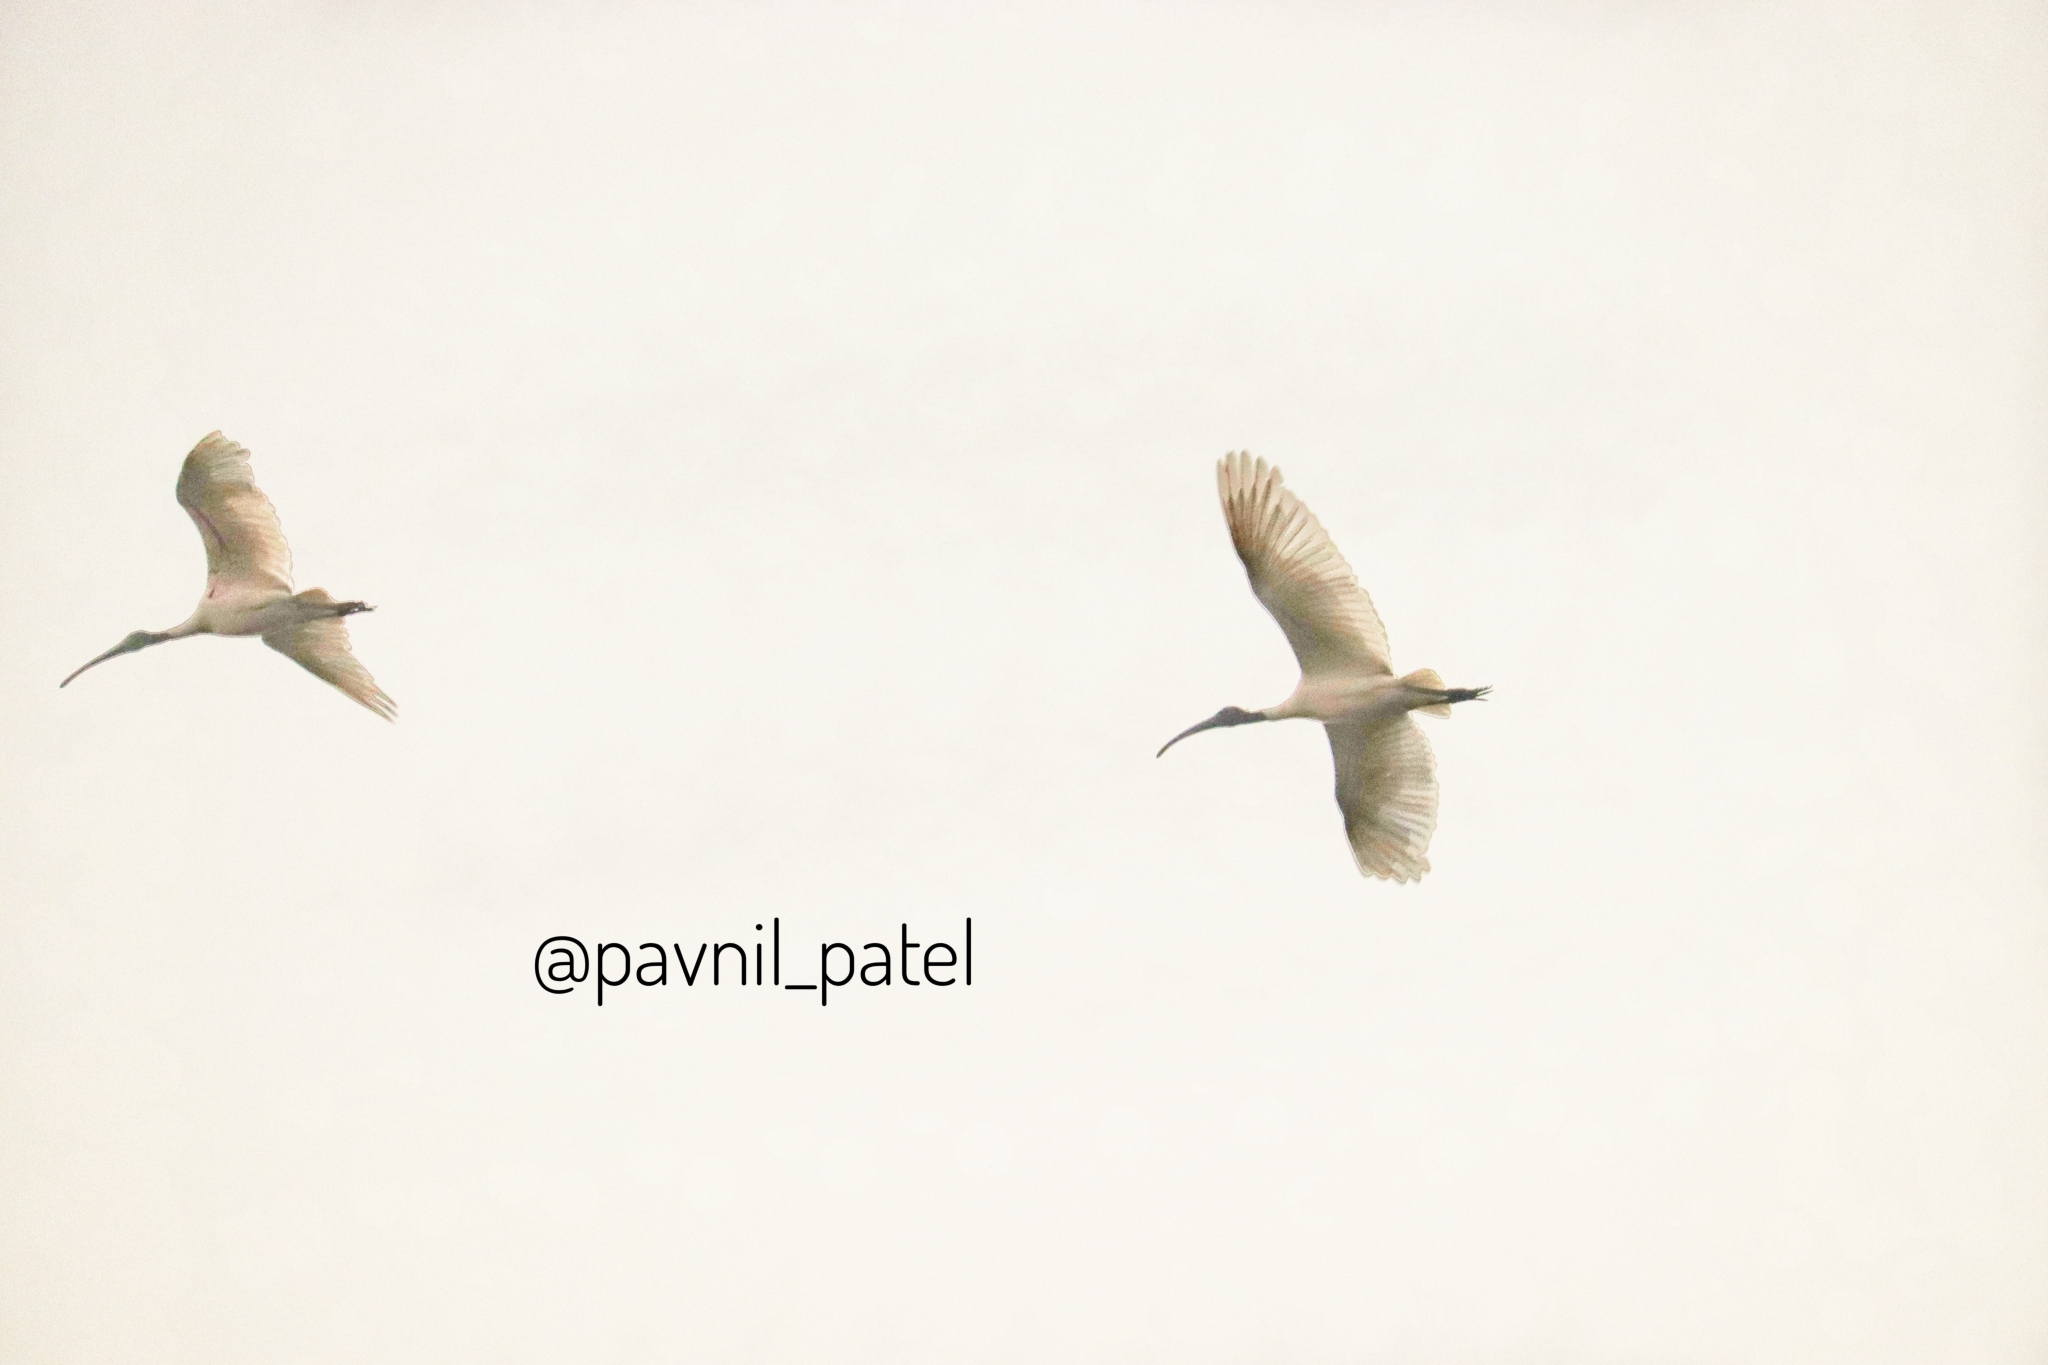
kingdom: Animalia
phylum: Chordata
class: Aves
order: Pelecaniformes
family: Threskiornithidae
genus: Threskiornis
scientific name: Threskiornis melanocephalus
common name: Black-headed ibis
